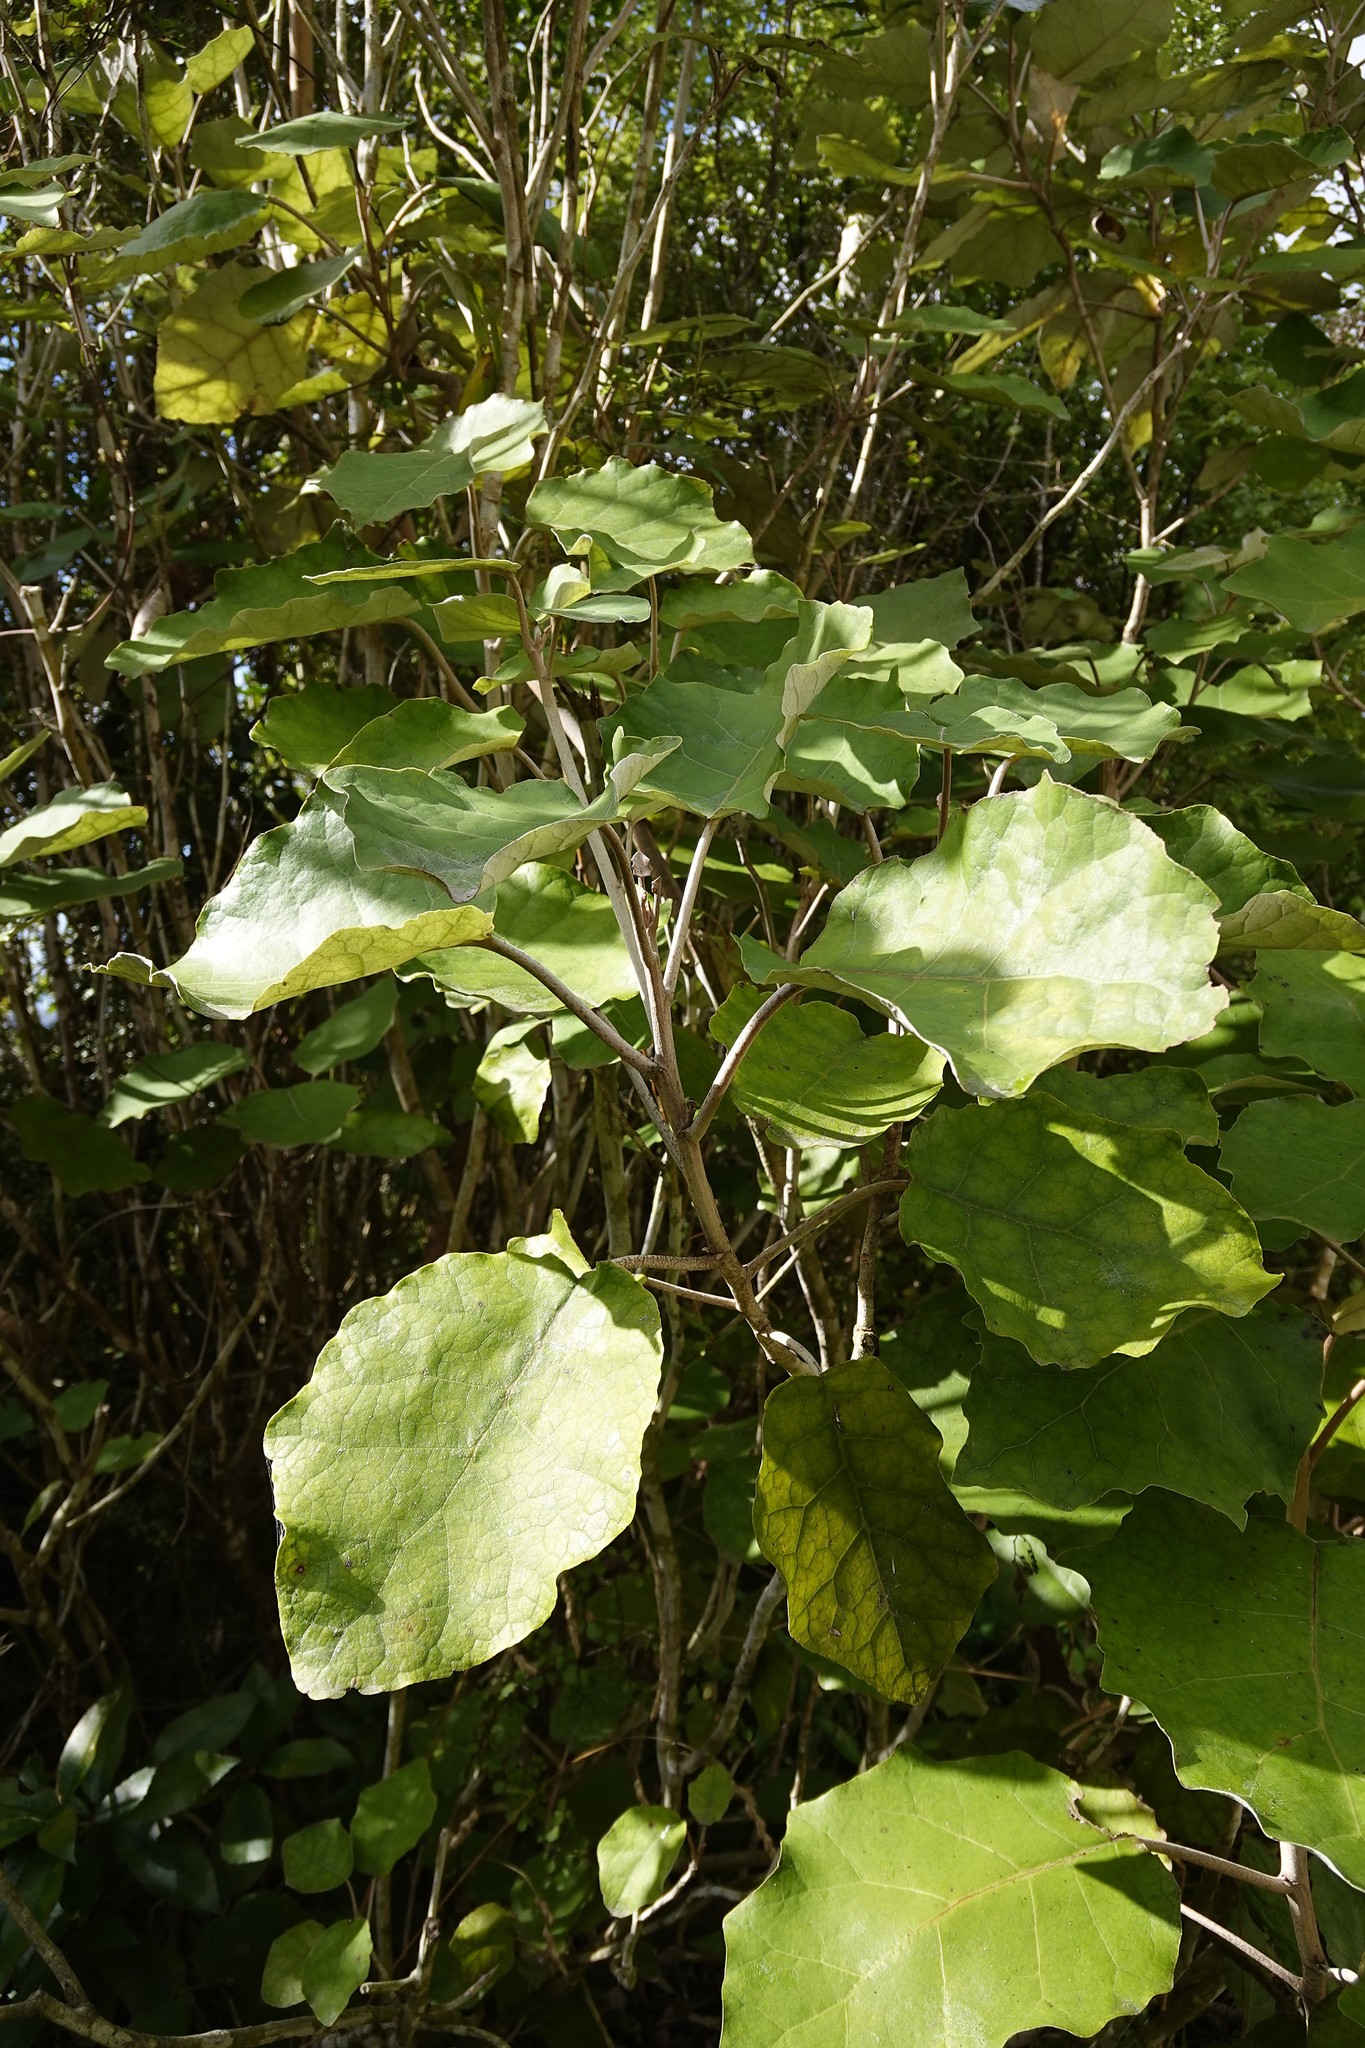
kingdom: Plantae
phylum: Tracheophyta
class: Magnoliopsida
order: Asterales
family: Asteraceae
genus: Brachyglottis
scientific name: Brachyglottis repanda
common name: Hedge ragwort
